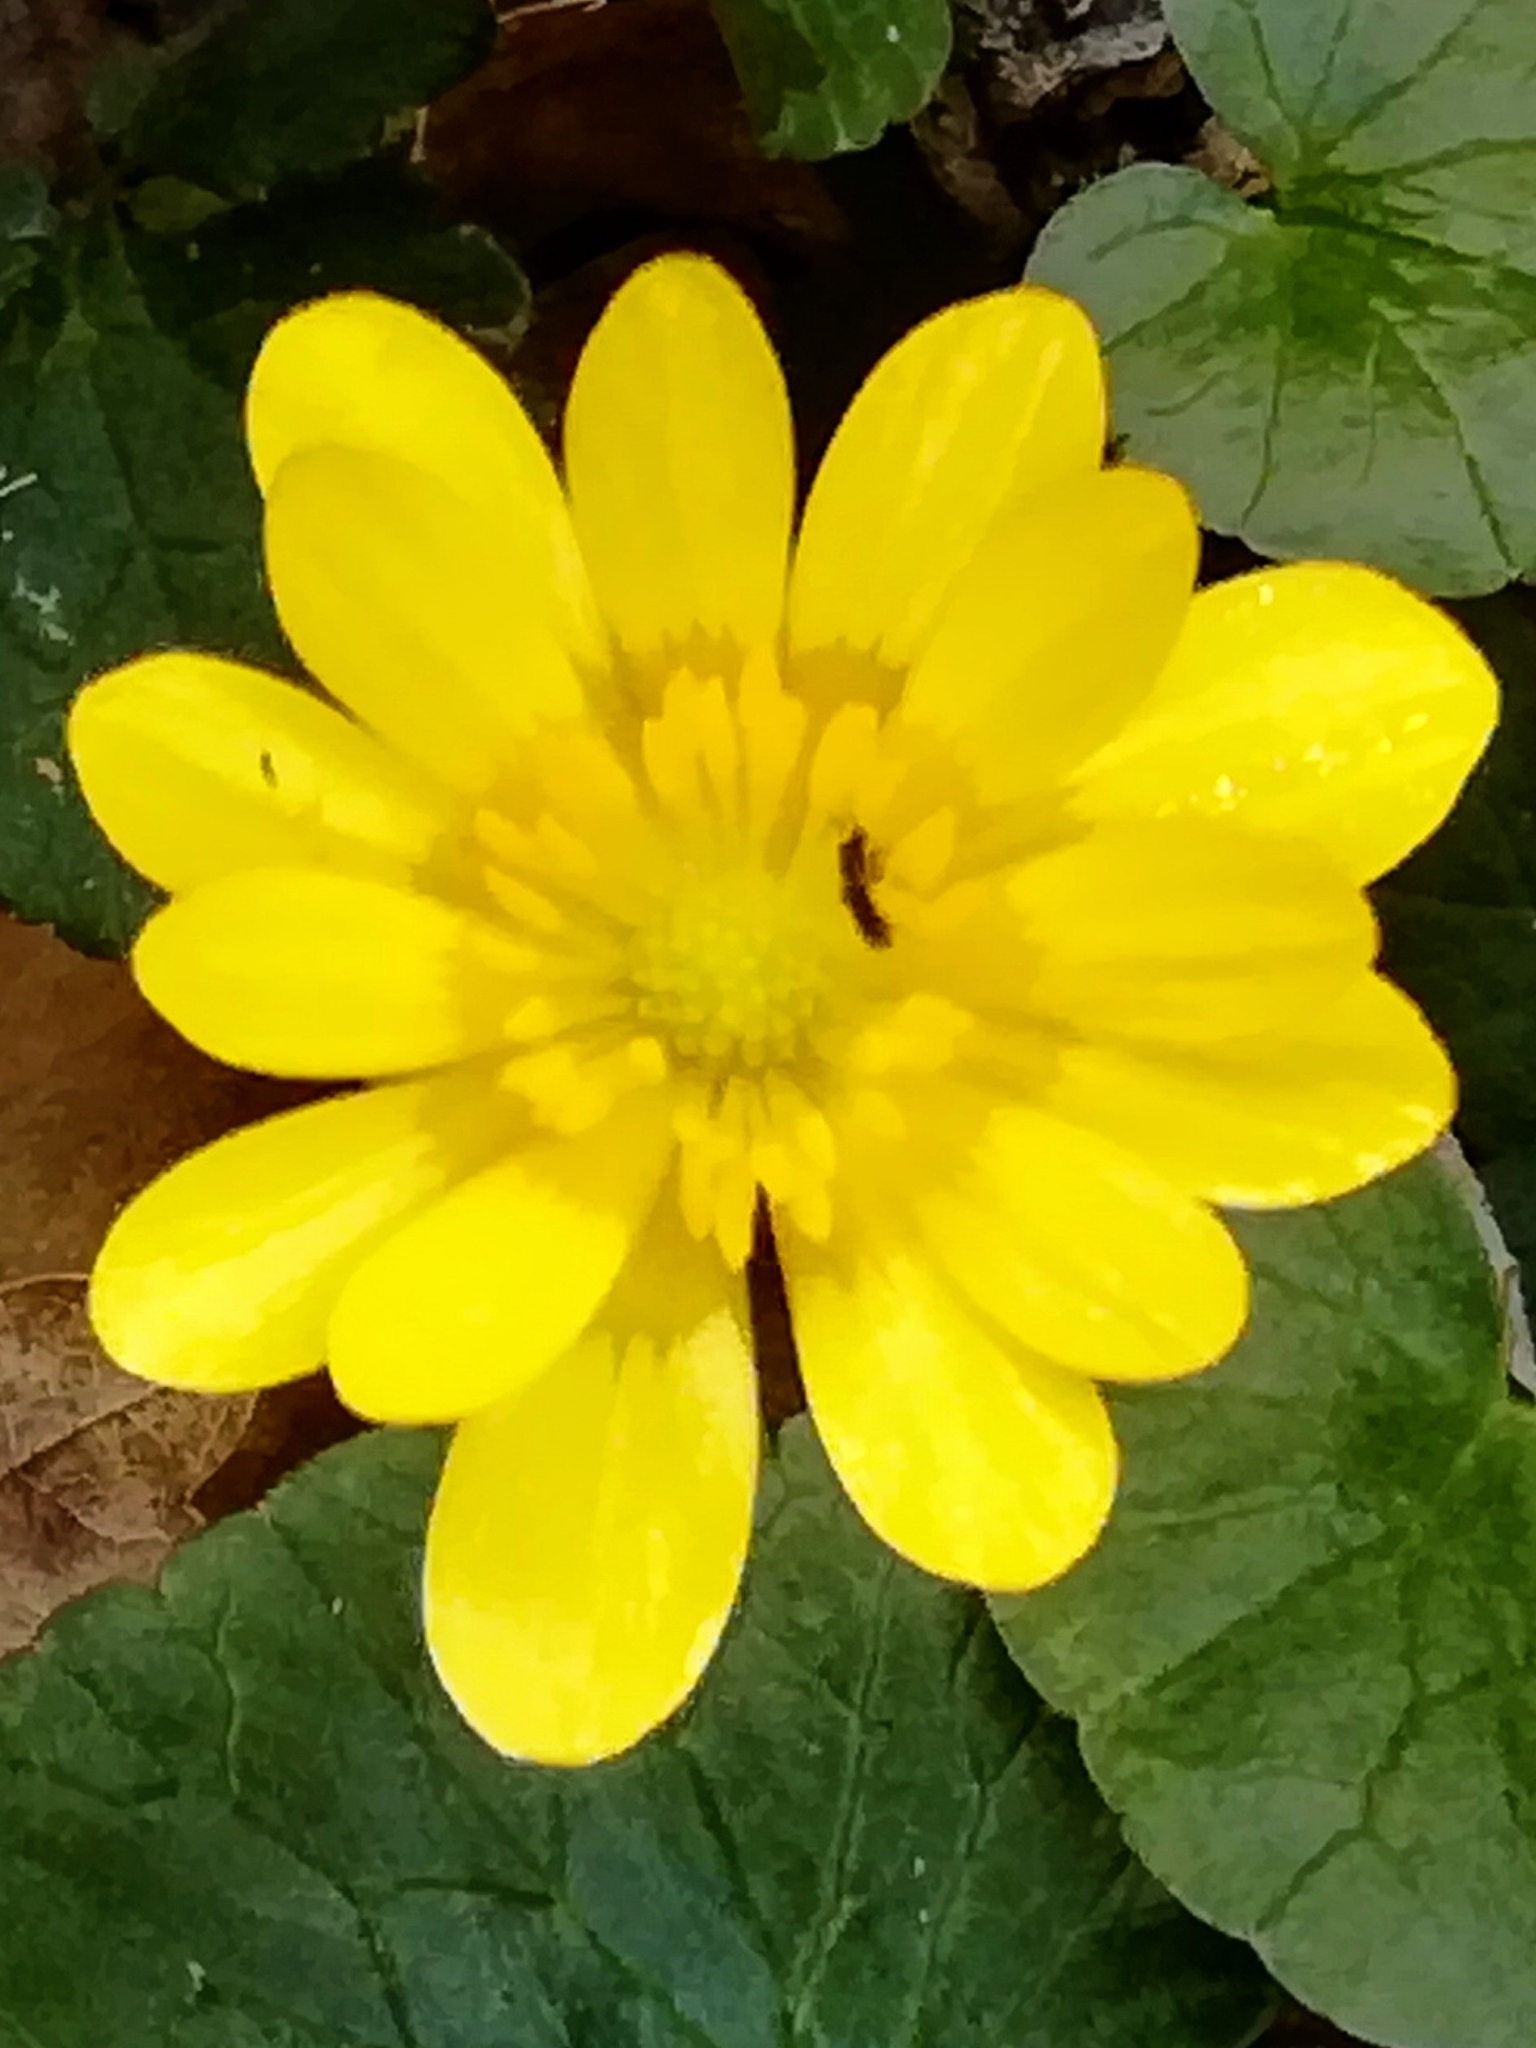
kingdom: Plantae
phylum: Tracheophyta
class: Magnoliopsida
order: Ranunculales
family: Ranunculaceae
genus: Ficaria
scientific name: Ficaria verna
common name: Lesser celandine
